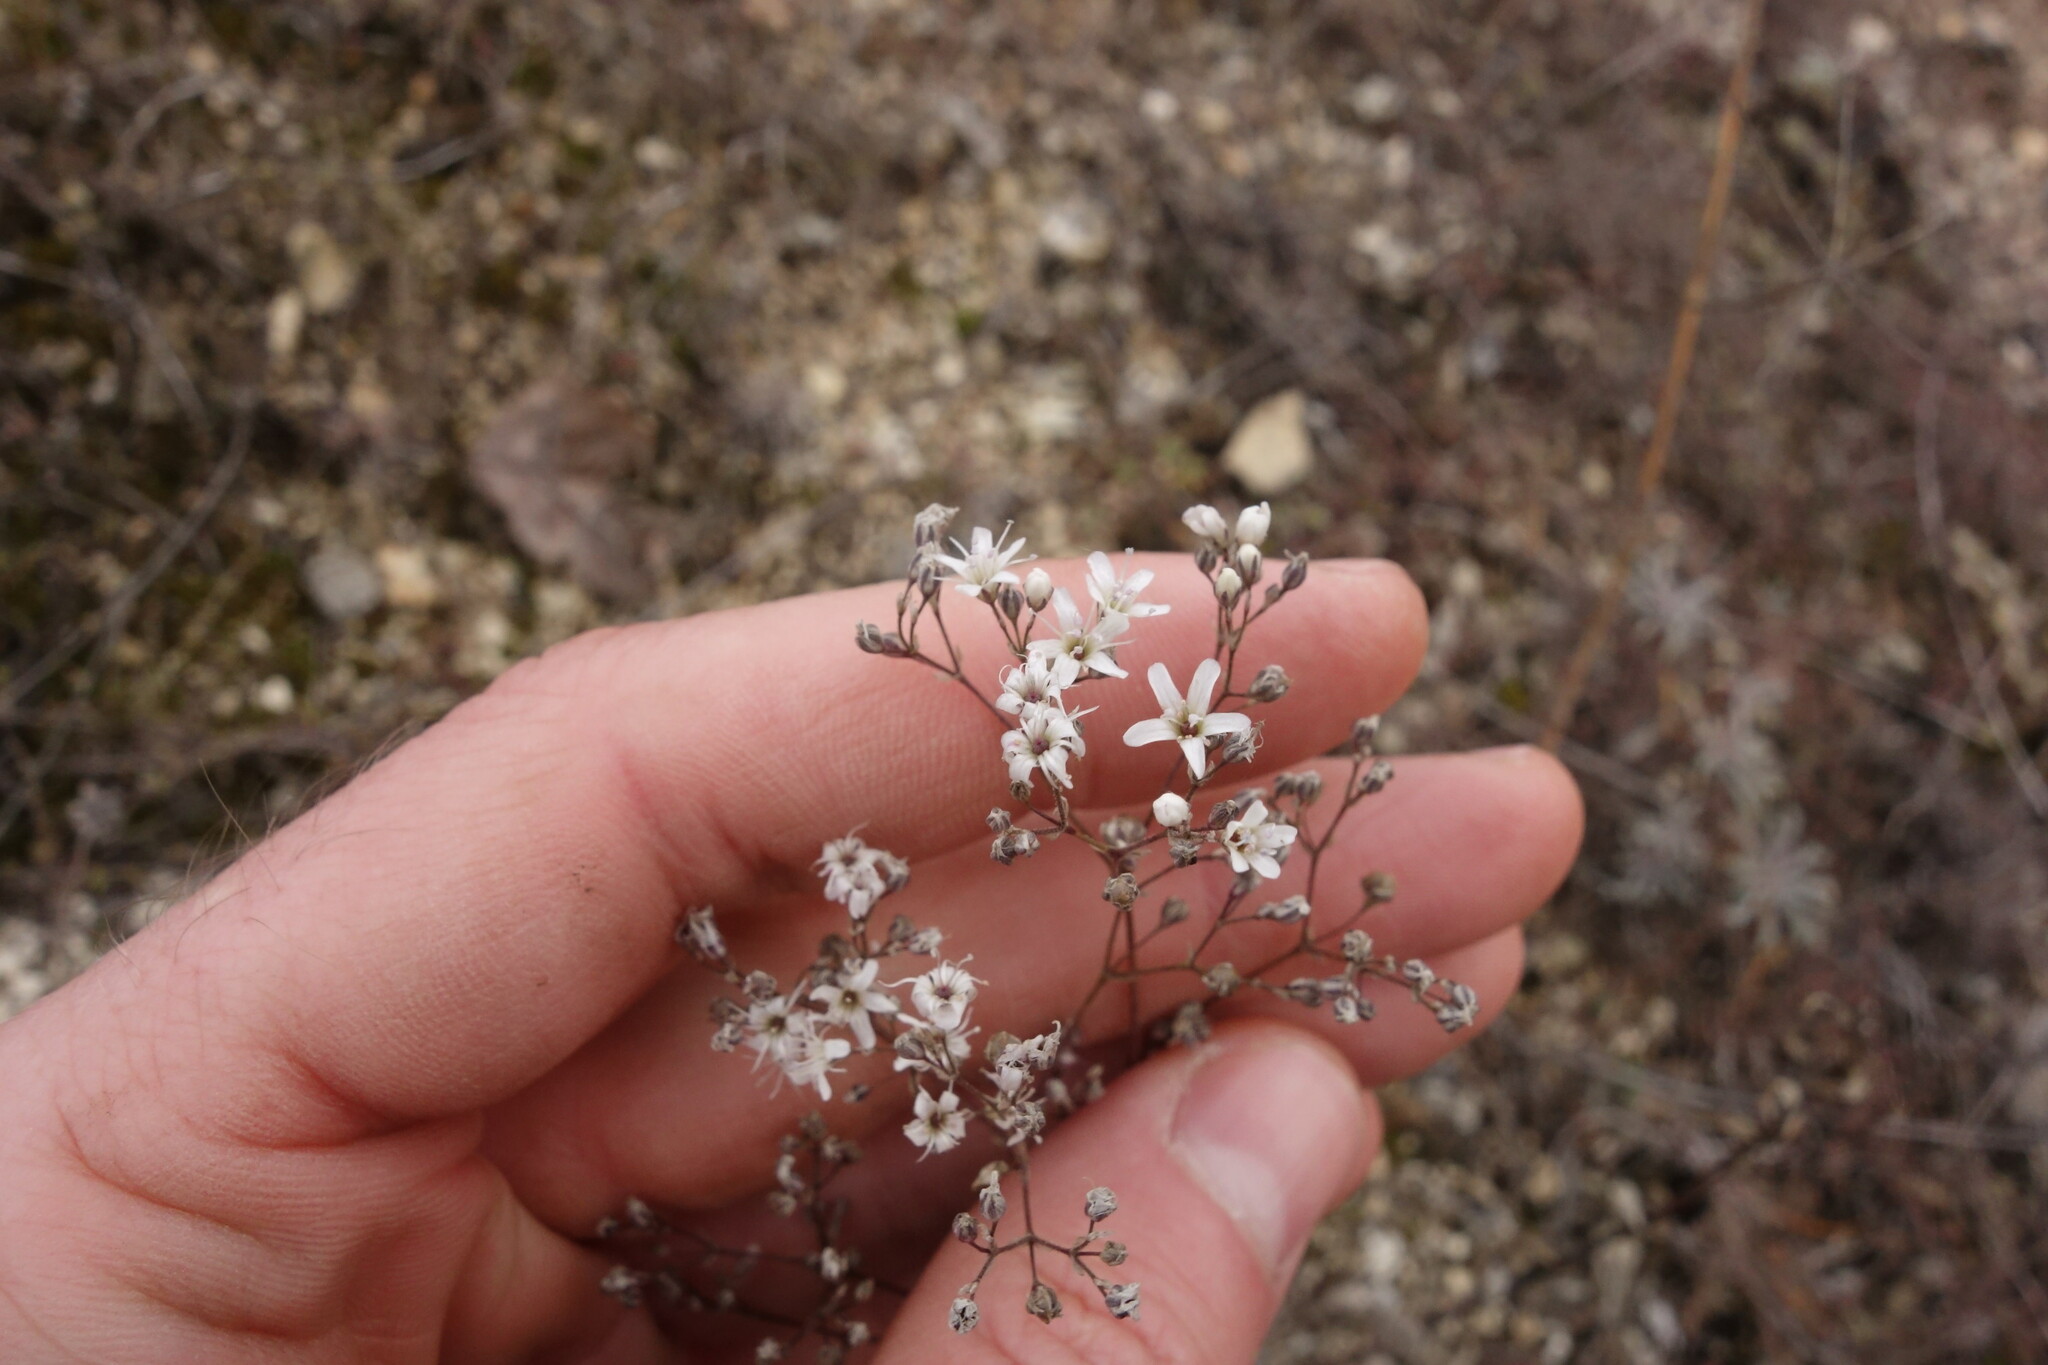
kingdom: Plantae
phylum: Tracheophyta
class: Magnoliopsida
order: Caryophyllales
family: Caryophyllaceae
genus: Gypsophila
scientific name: Gypsophila altissima
